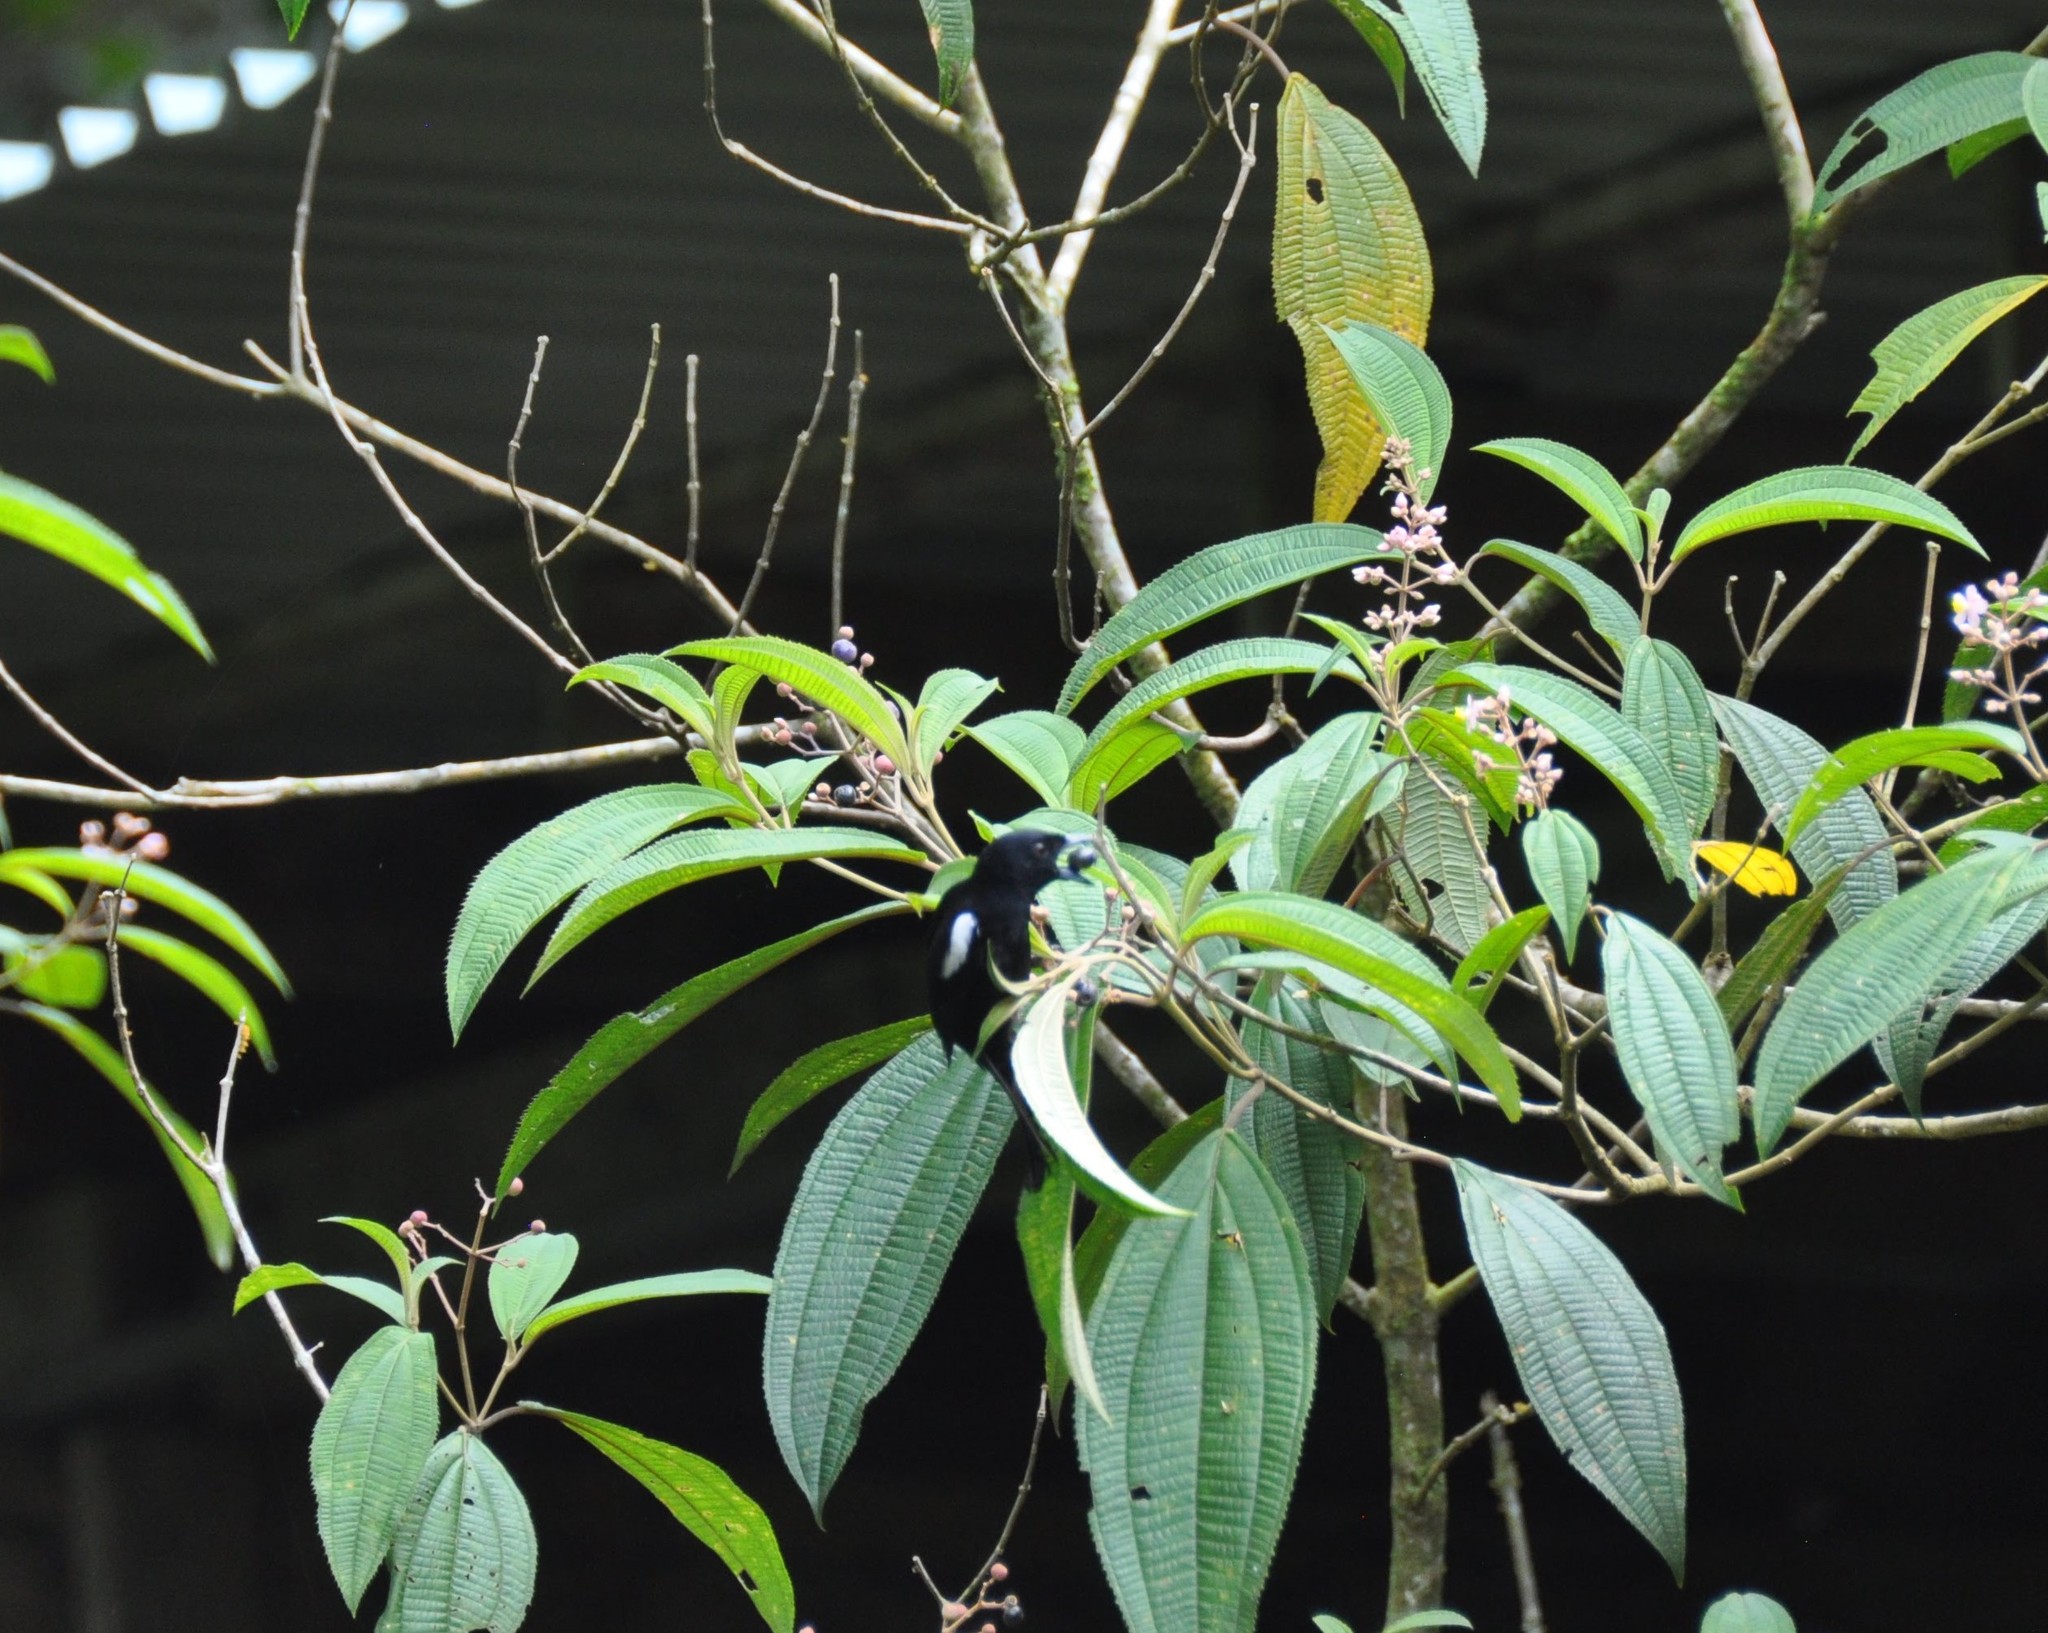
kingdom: Animalia
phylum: Chordata
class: Aves
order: Passeriformes
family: Thraupidae
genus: Loriotus
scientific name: Loriotus luctuosus
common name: White-shouldered tanager
